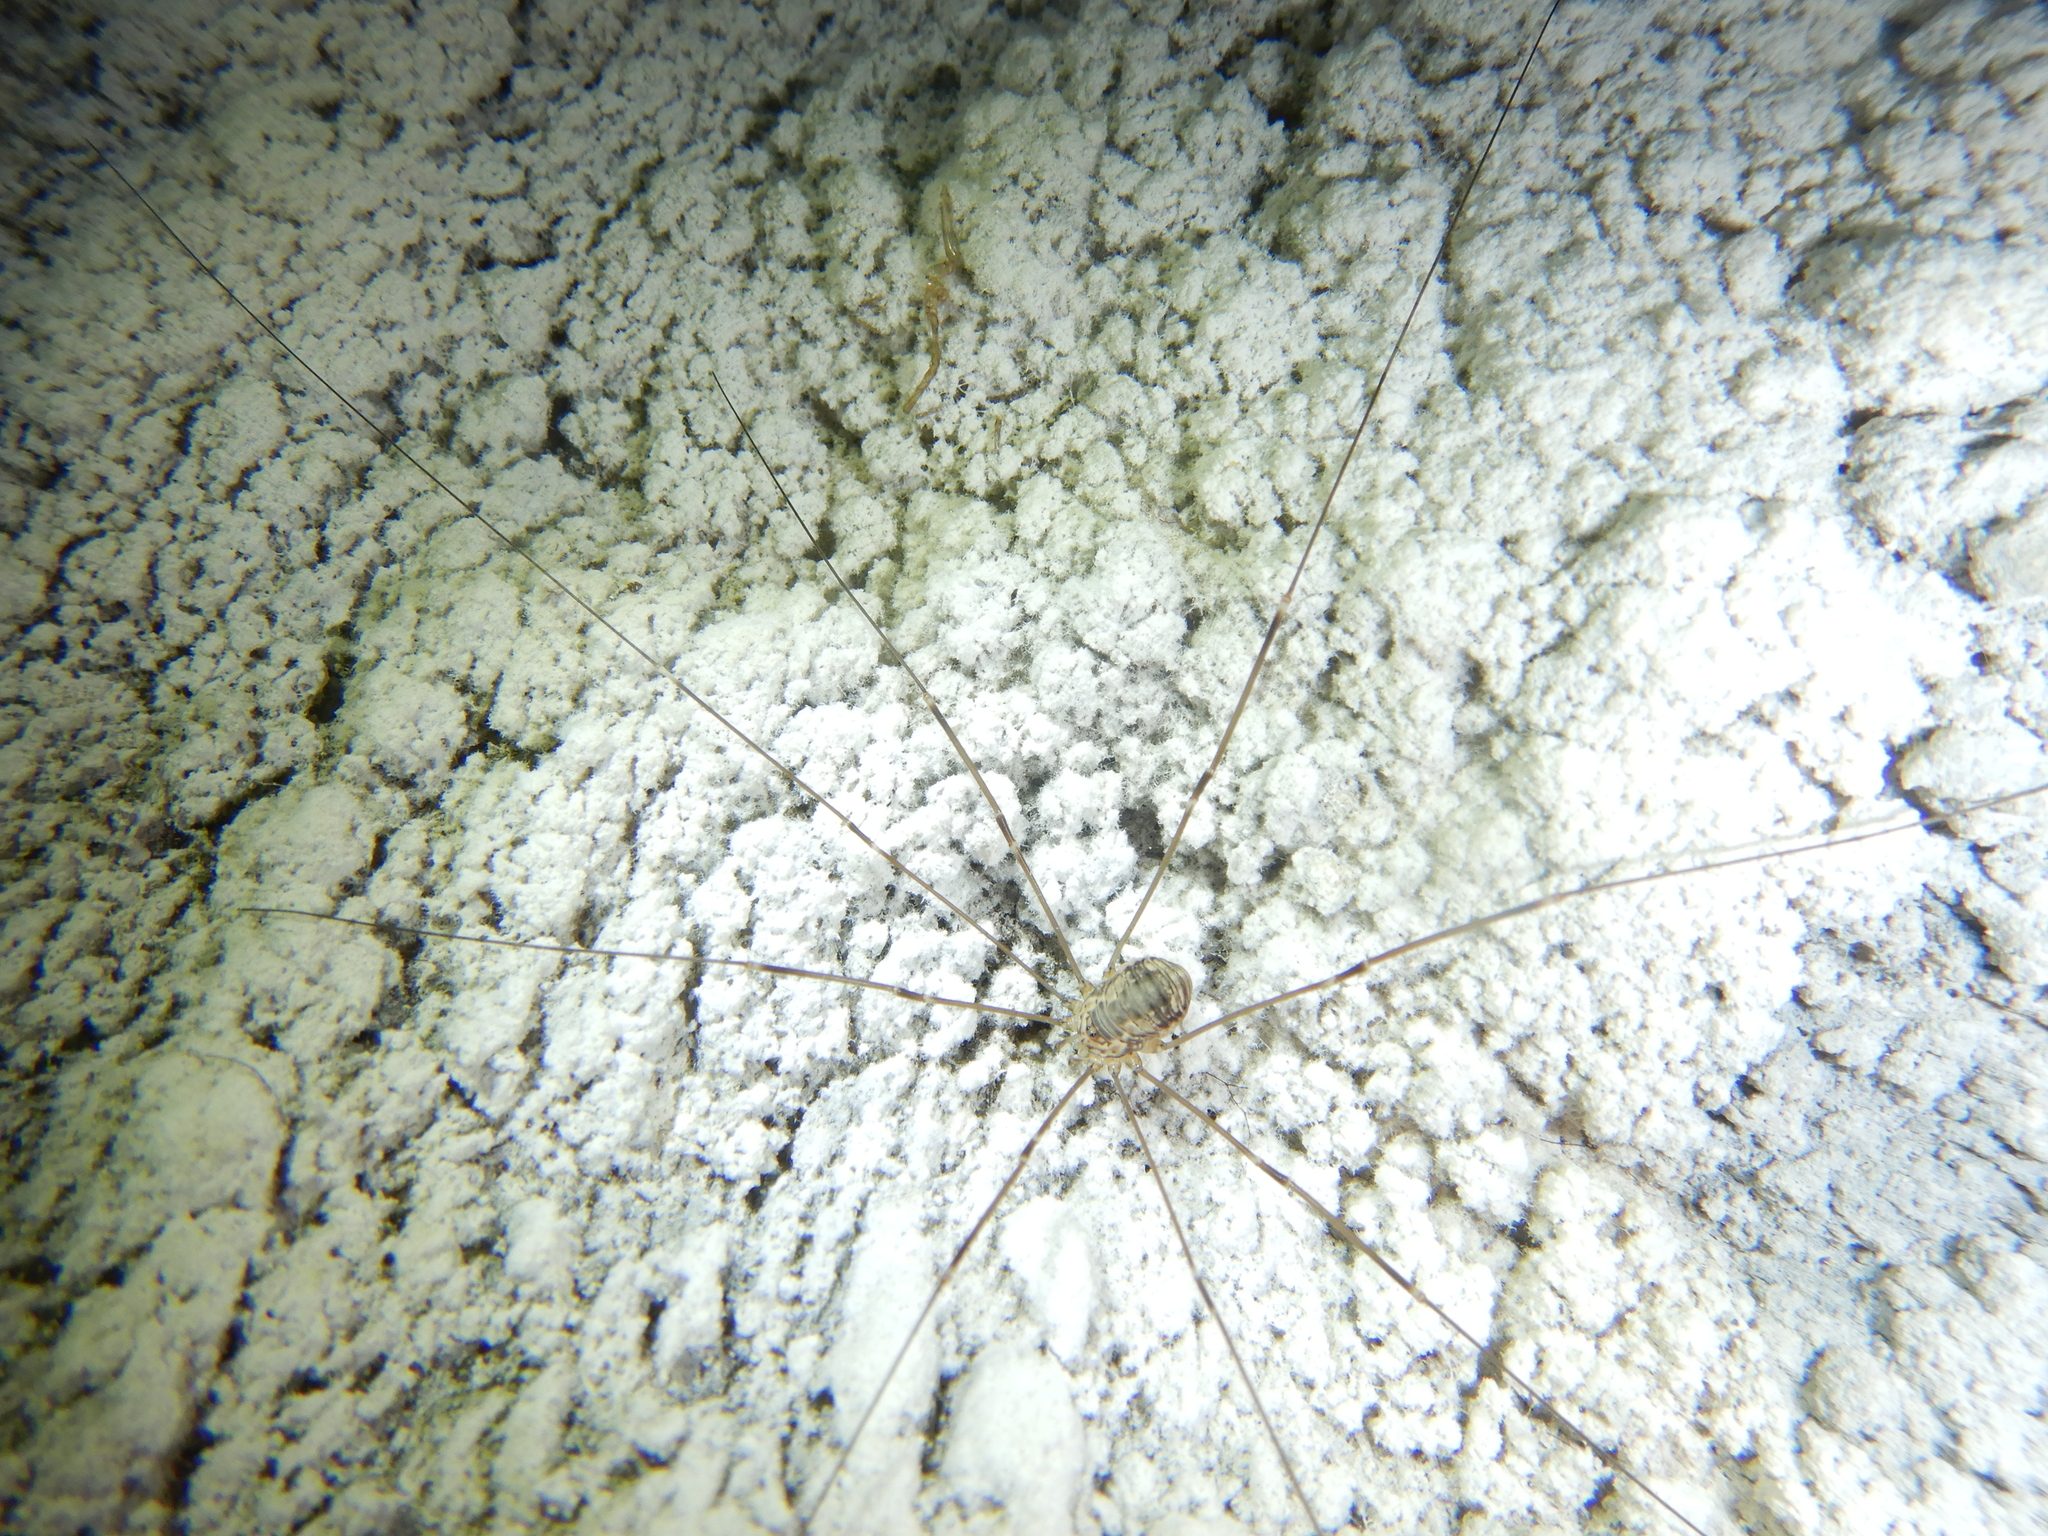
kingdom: Animalia
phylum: Arthropoda
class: Arachnida
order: Opiliones
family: Sclerosomatidae
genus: Leiobunum
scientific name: Leiobunum limbatum
